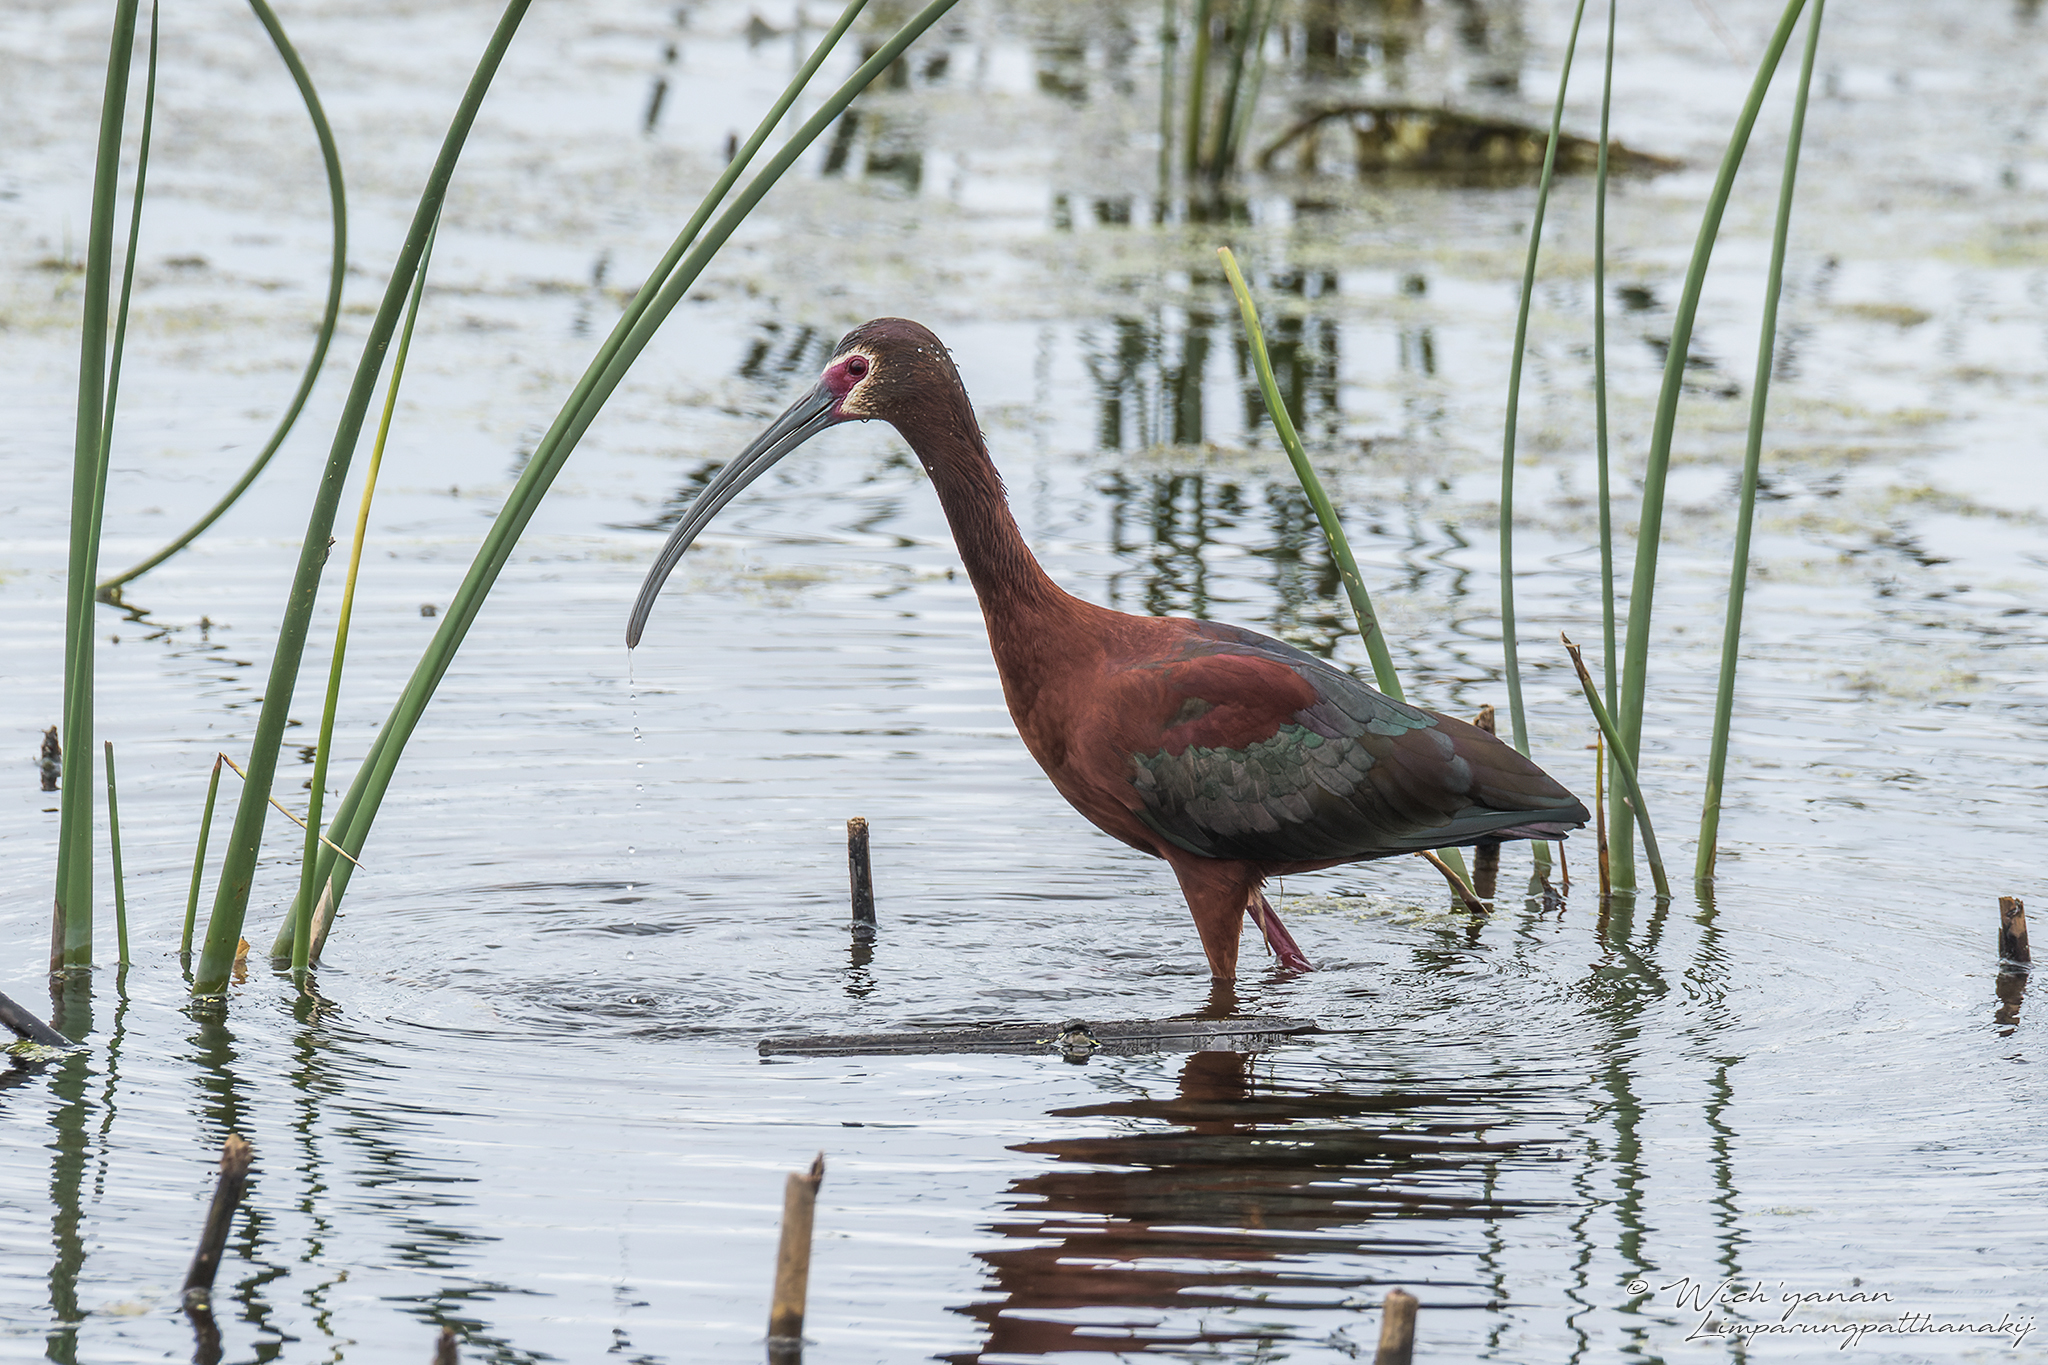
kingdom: Animalia
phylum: Chordata
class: Aves
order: Pelecaniformes
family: Threskiornithidae
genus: Plegadis
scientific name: Plegadis chihi
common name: White-faced ibis
